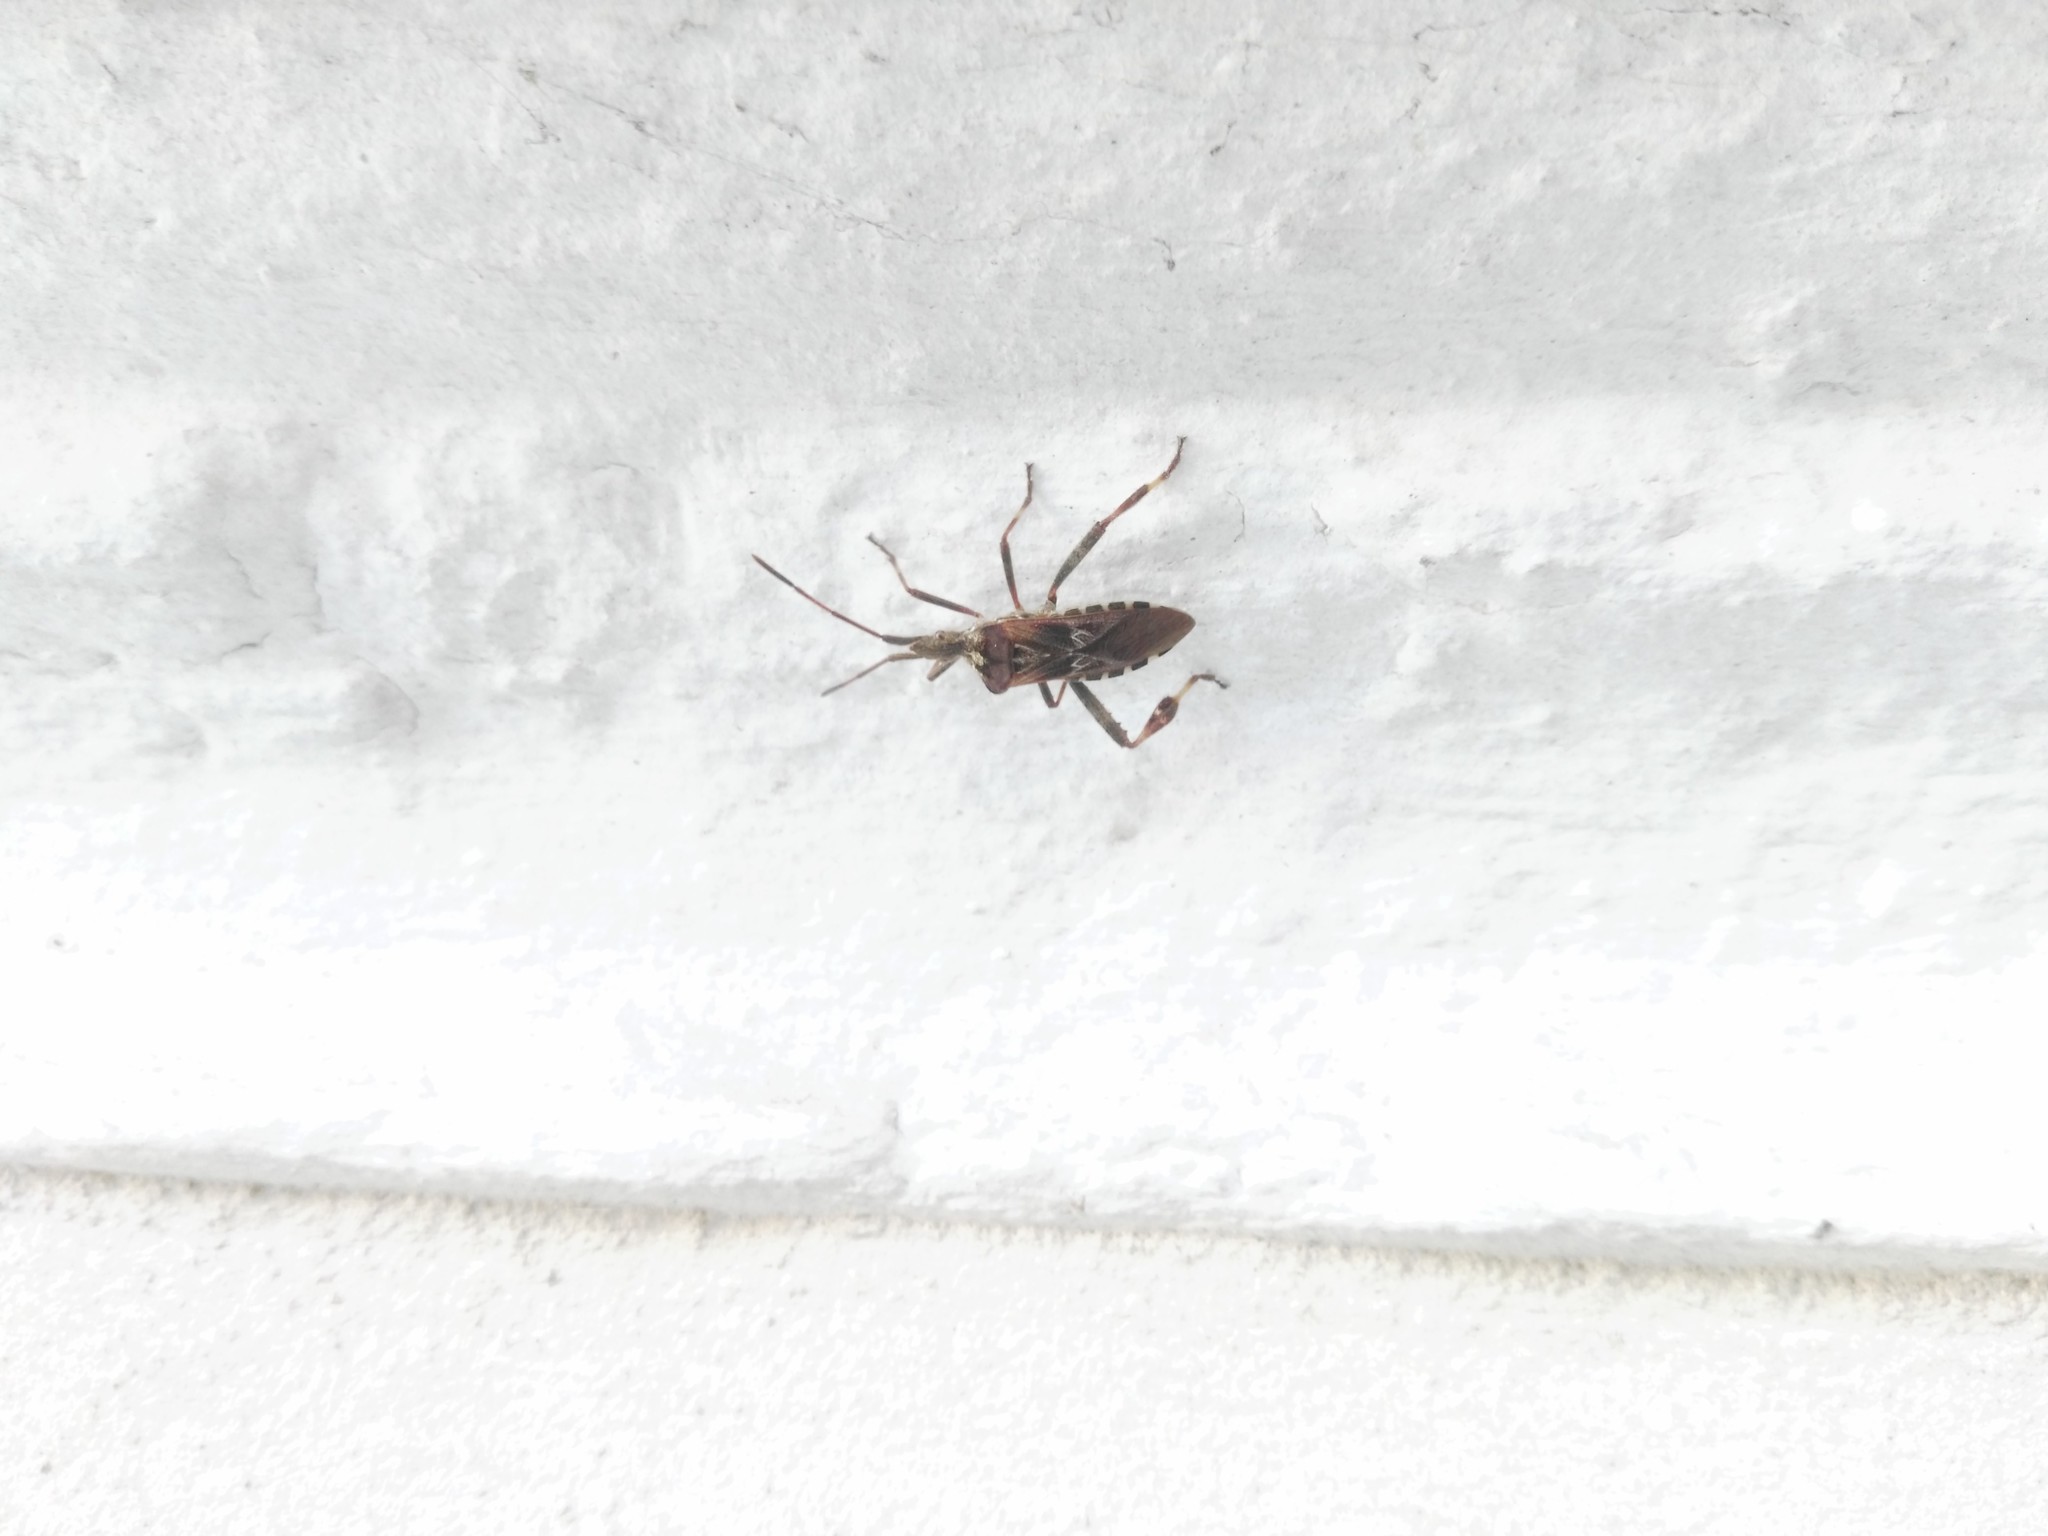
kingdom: Animalia
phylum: Arthropoda
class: Insecta
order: Hemiptera
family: Coreidae
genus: Leptoglossus
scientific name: Leptoglossus occidentalis
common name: Western conifer-seed bug
